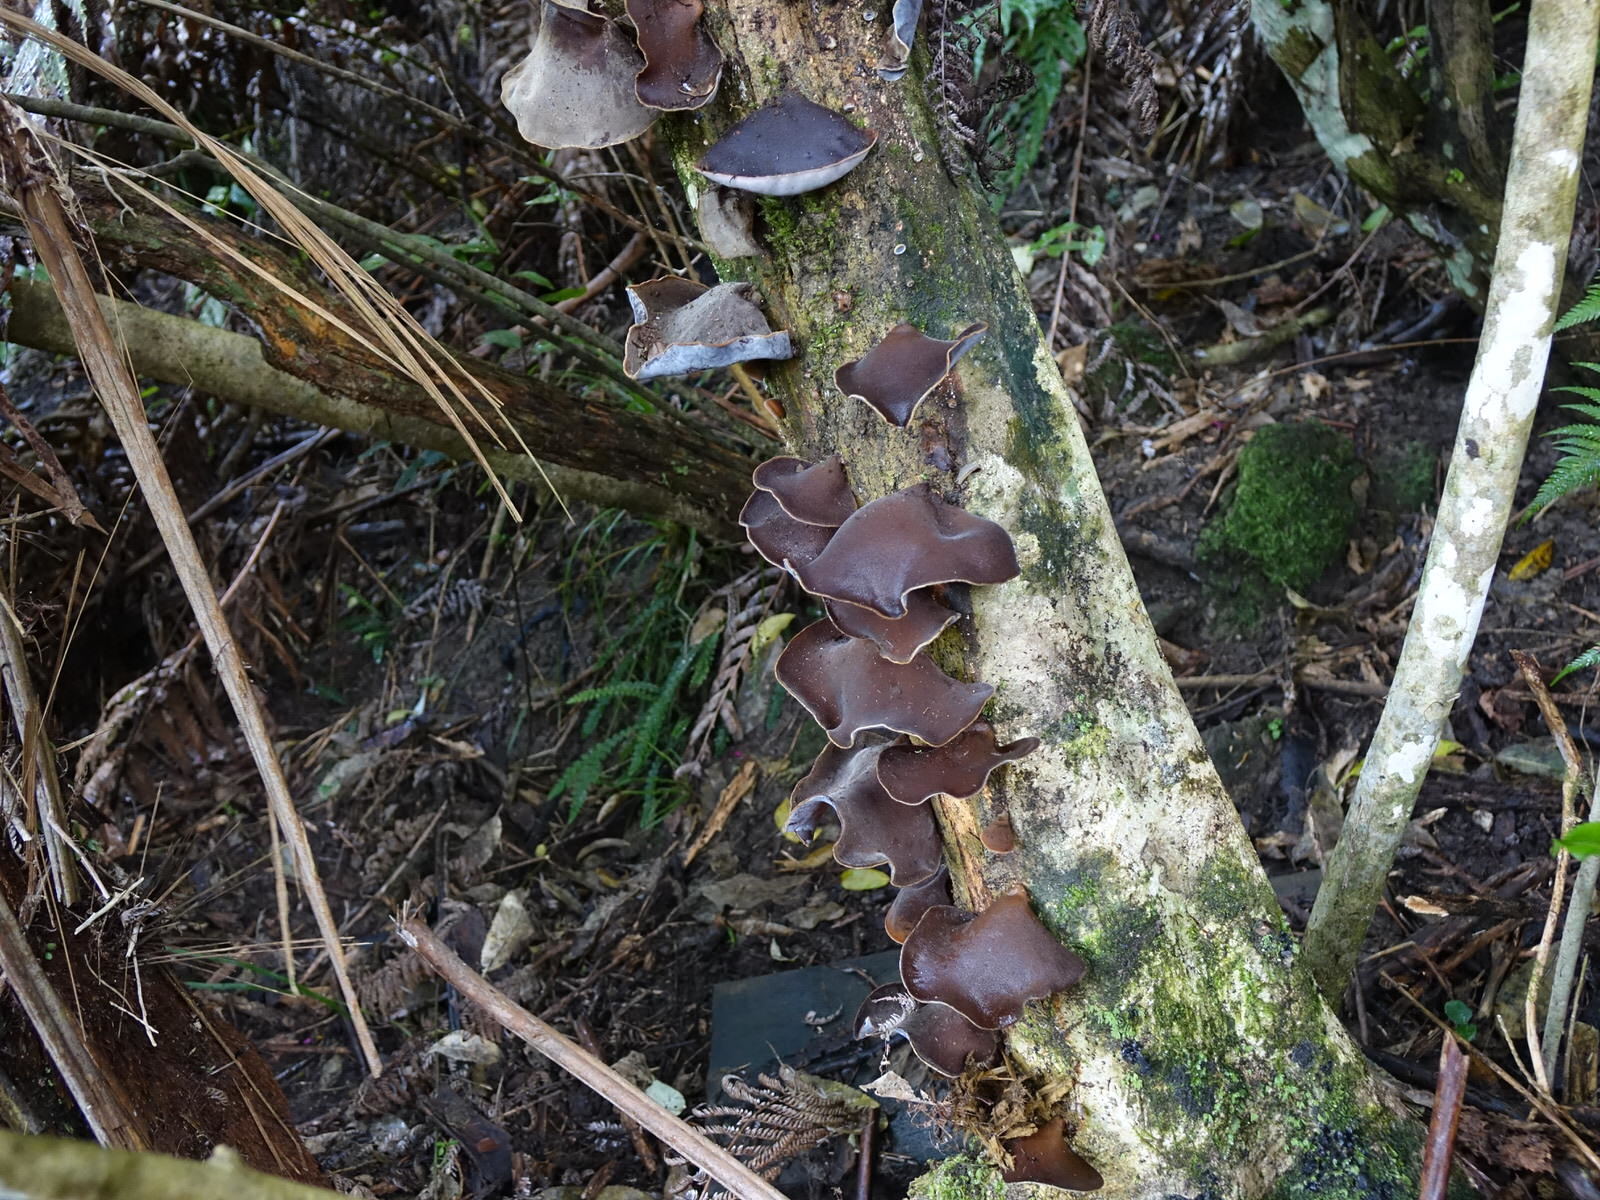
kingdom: Fungi
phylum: Basidiomycota
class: Agaricomycetes
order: Auriculariales
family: Auriculariaceae
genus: Auricularia
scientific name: Auricularia cornea
